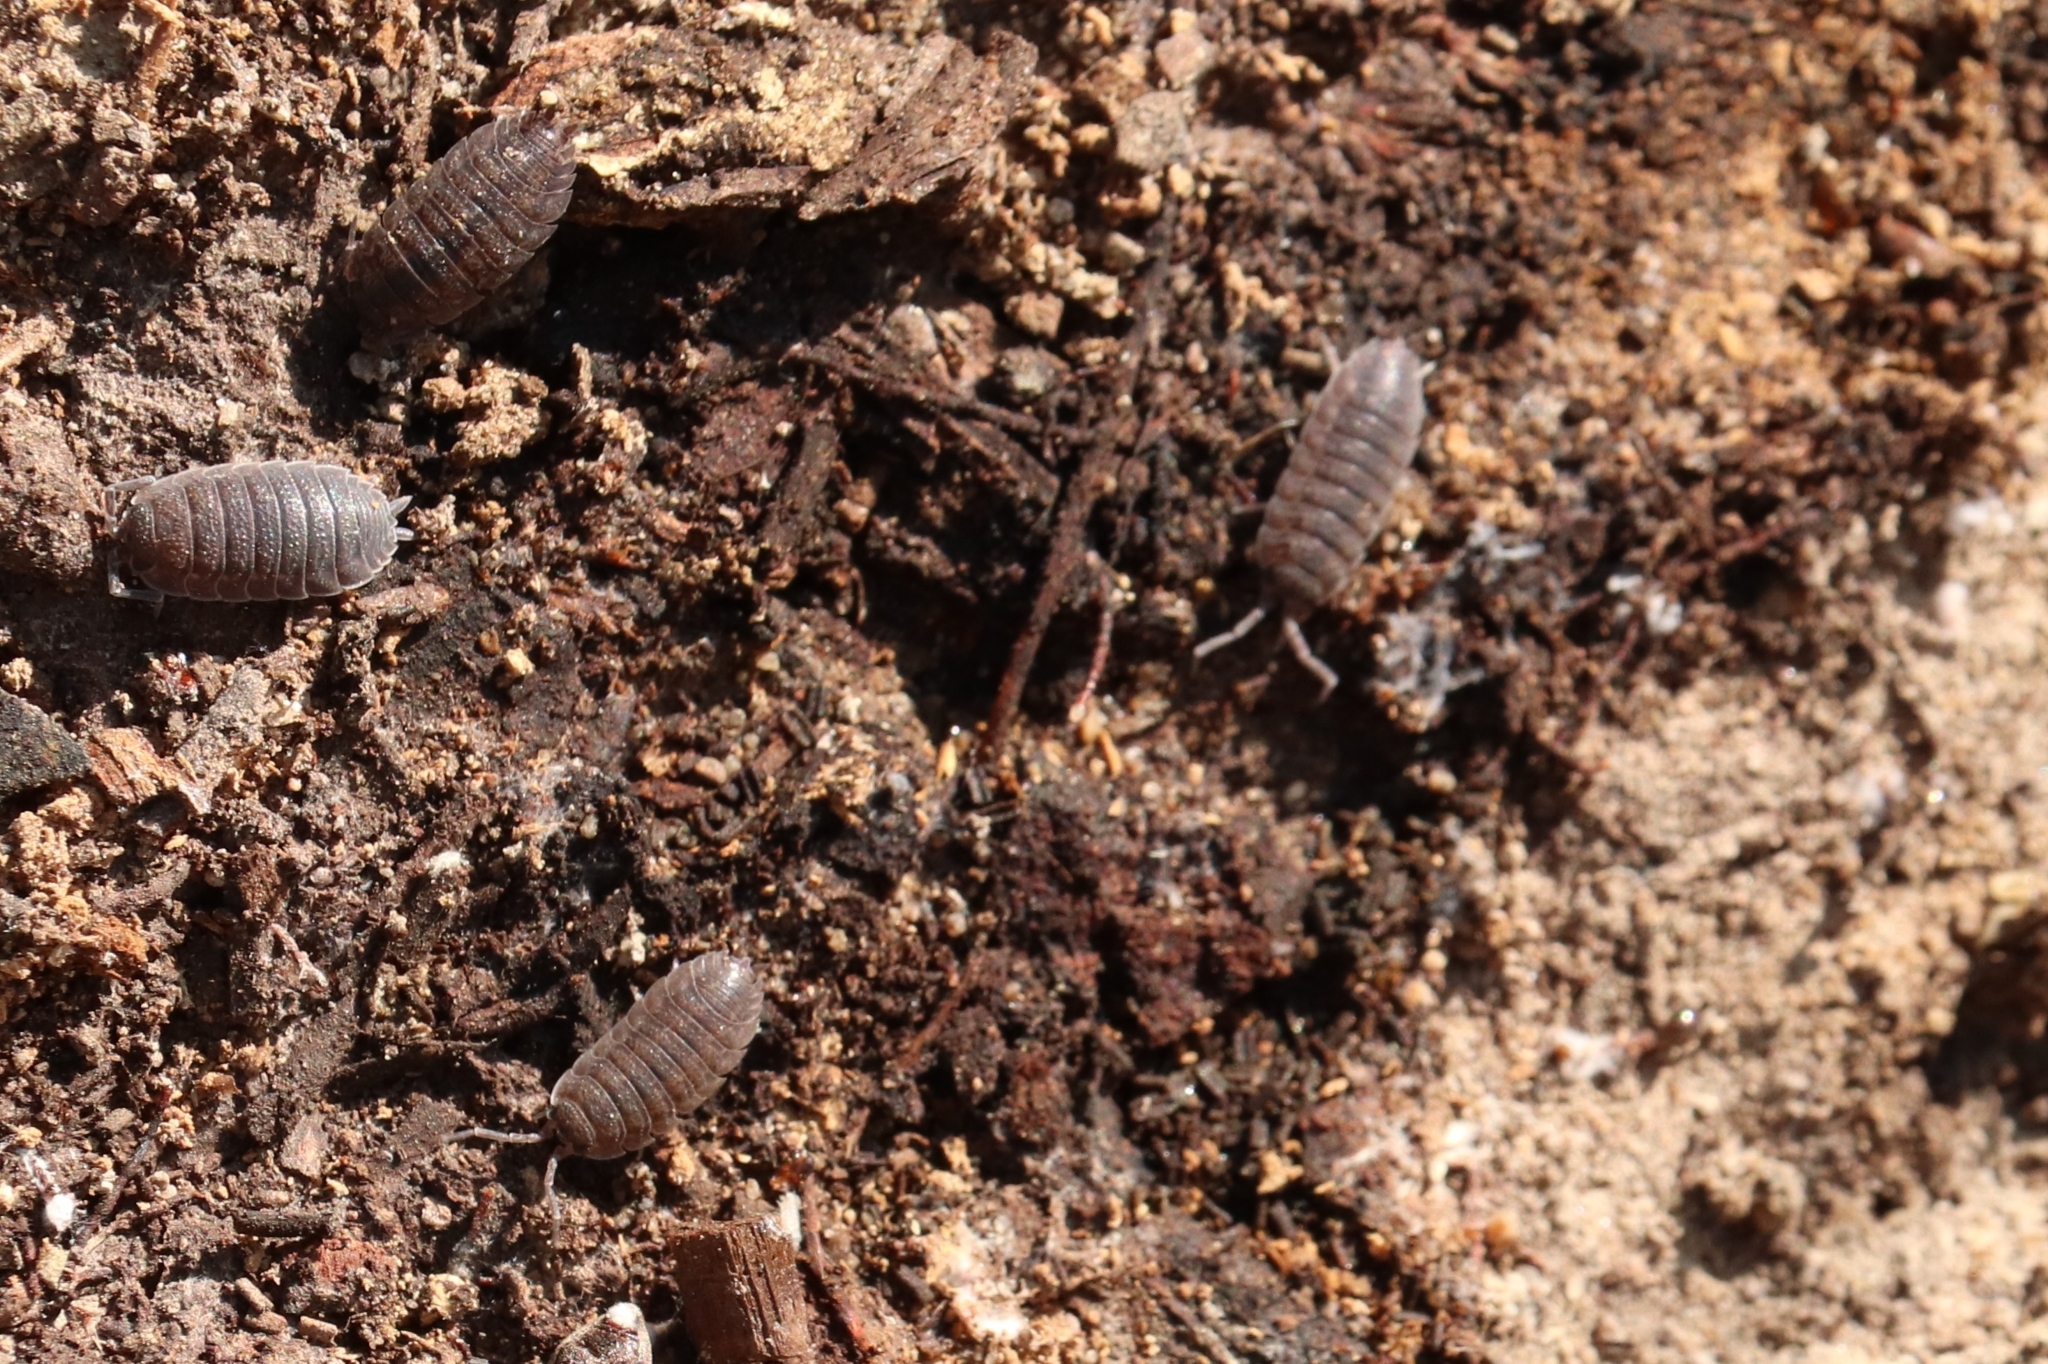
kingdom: Animalia
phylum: Arthropoda
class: Malacostraca
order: Isopoda
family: Porcellionidae
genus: Porcellio
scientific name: Porcellio scaber
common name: Common rough woodlouse
